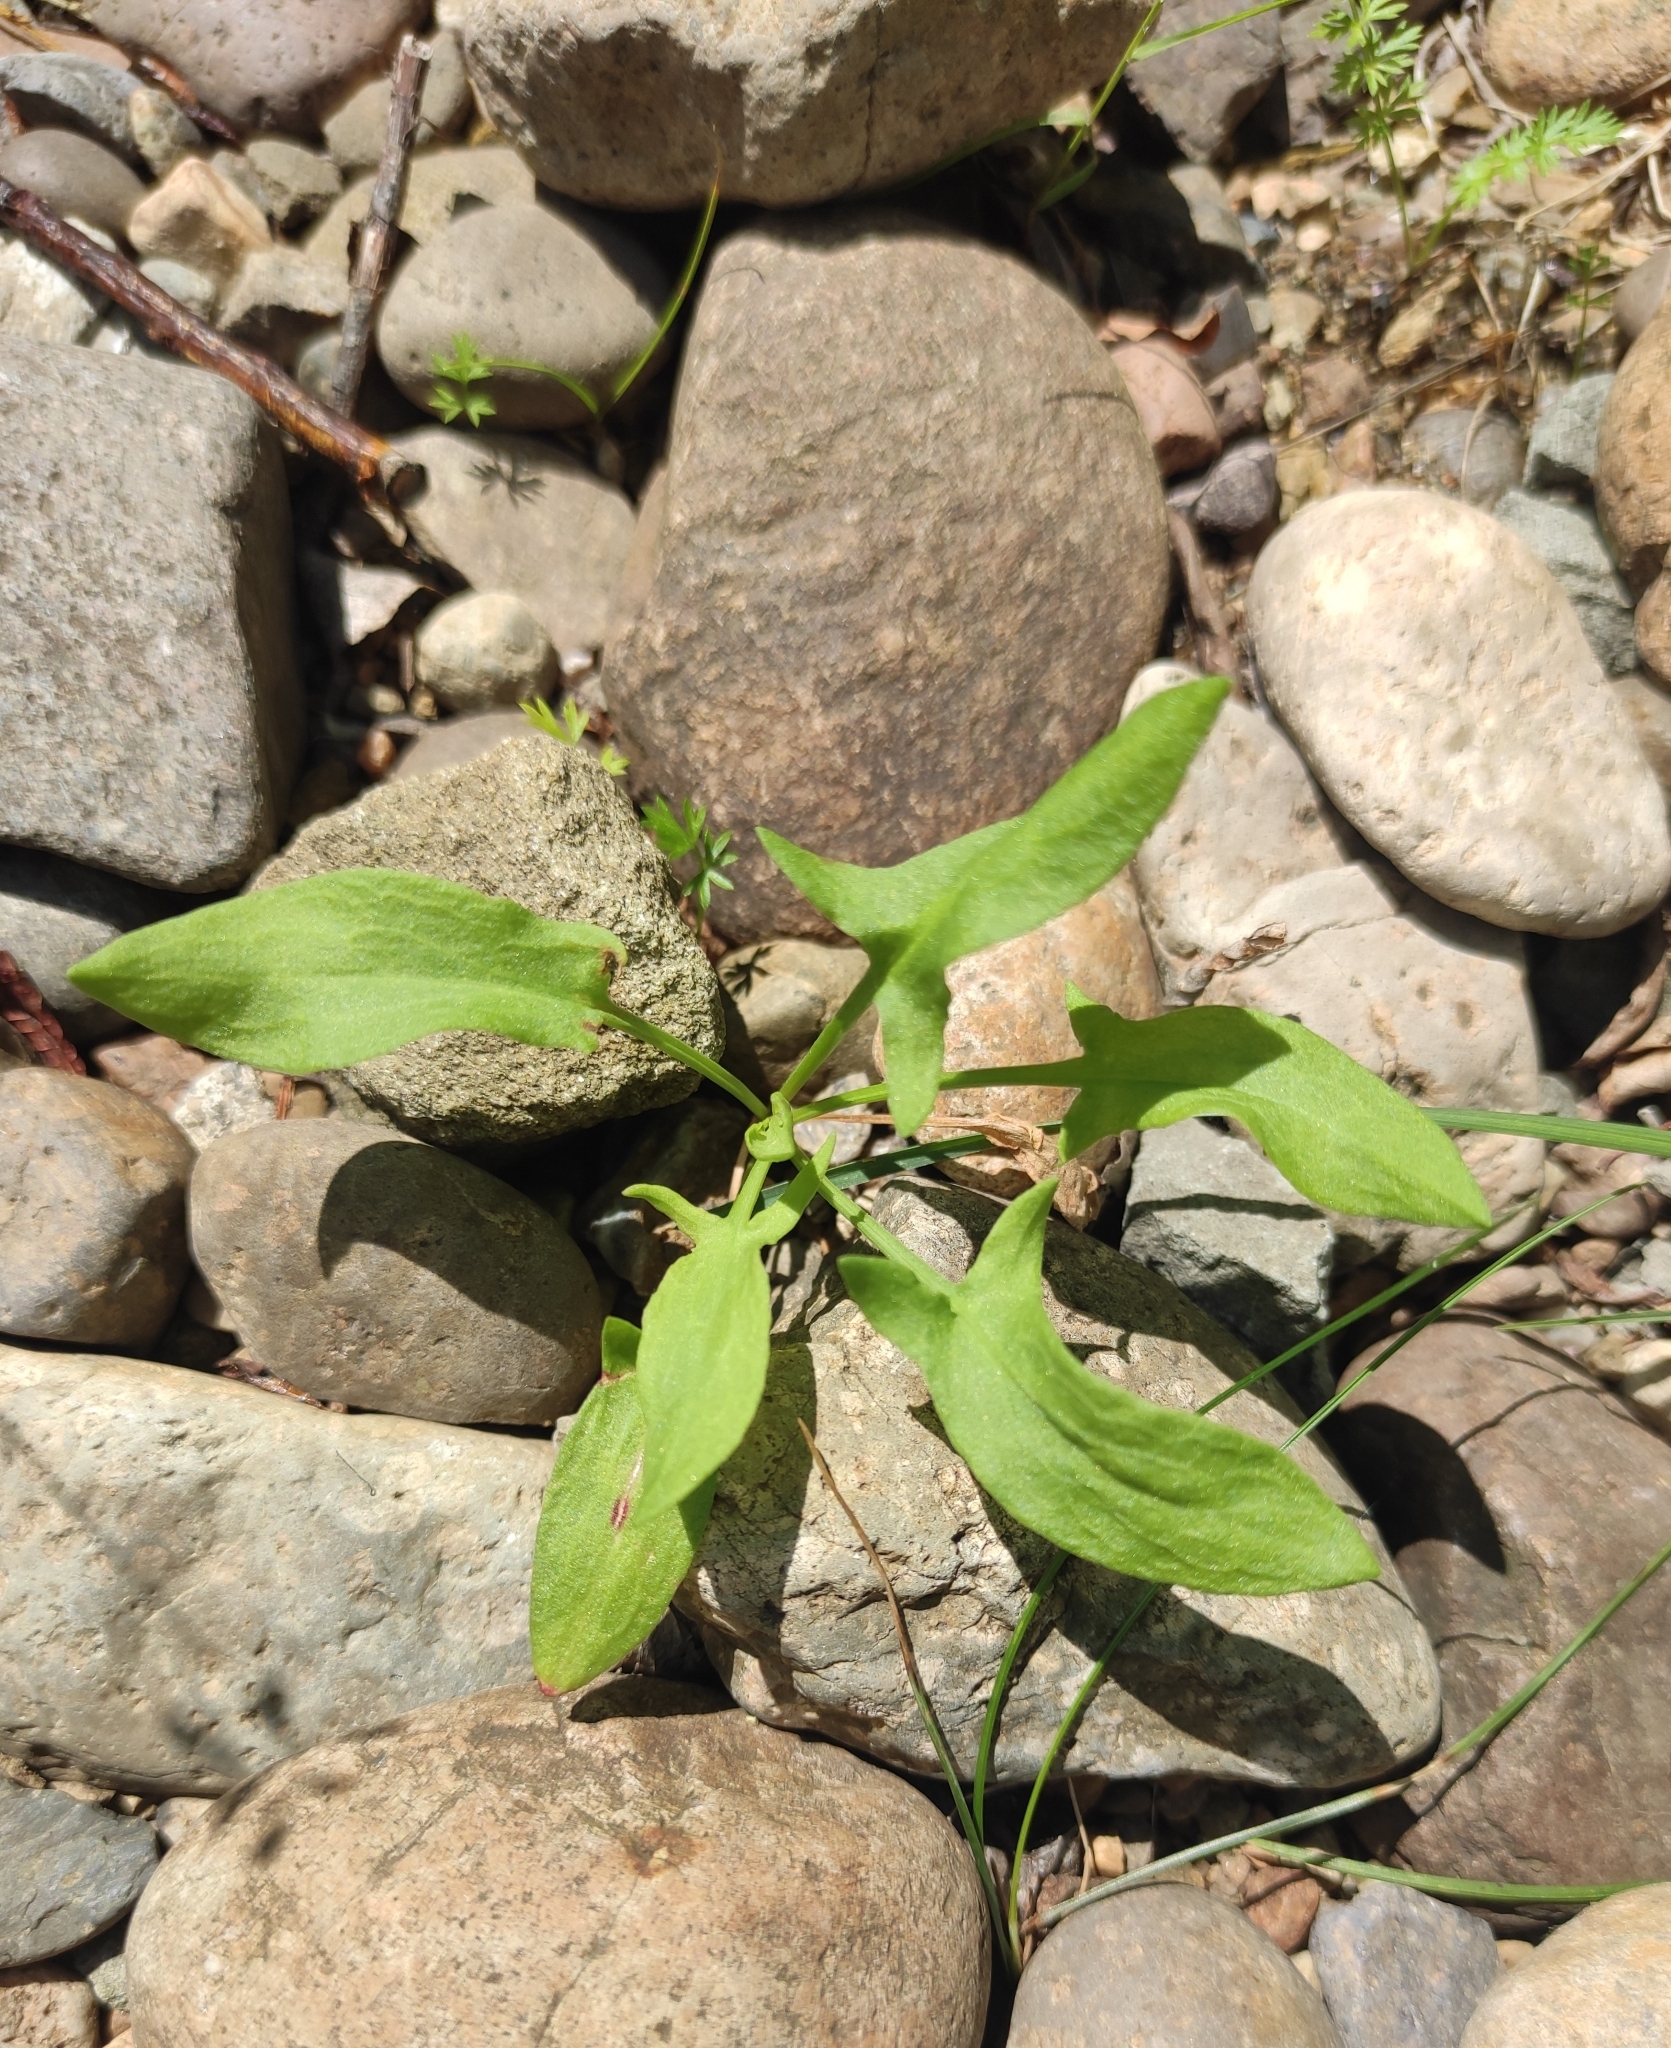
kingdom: Plantae
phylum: Tracheophyta
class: Magnoliopsida
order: Caryophyllales
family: Polygonaceae
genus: Rumex
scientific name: Rumex acetosella
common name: Common sheep sorrel
